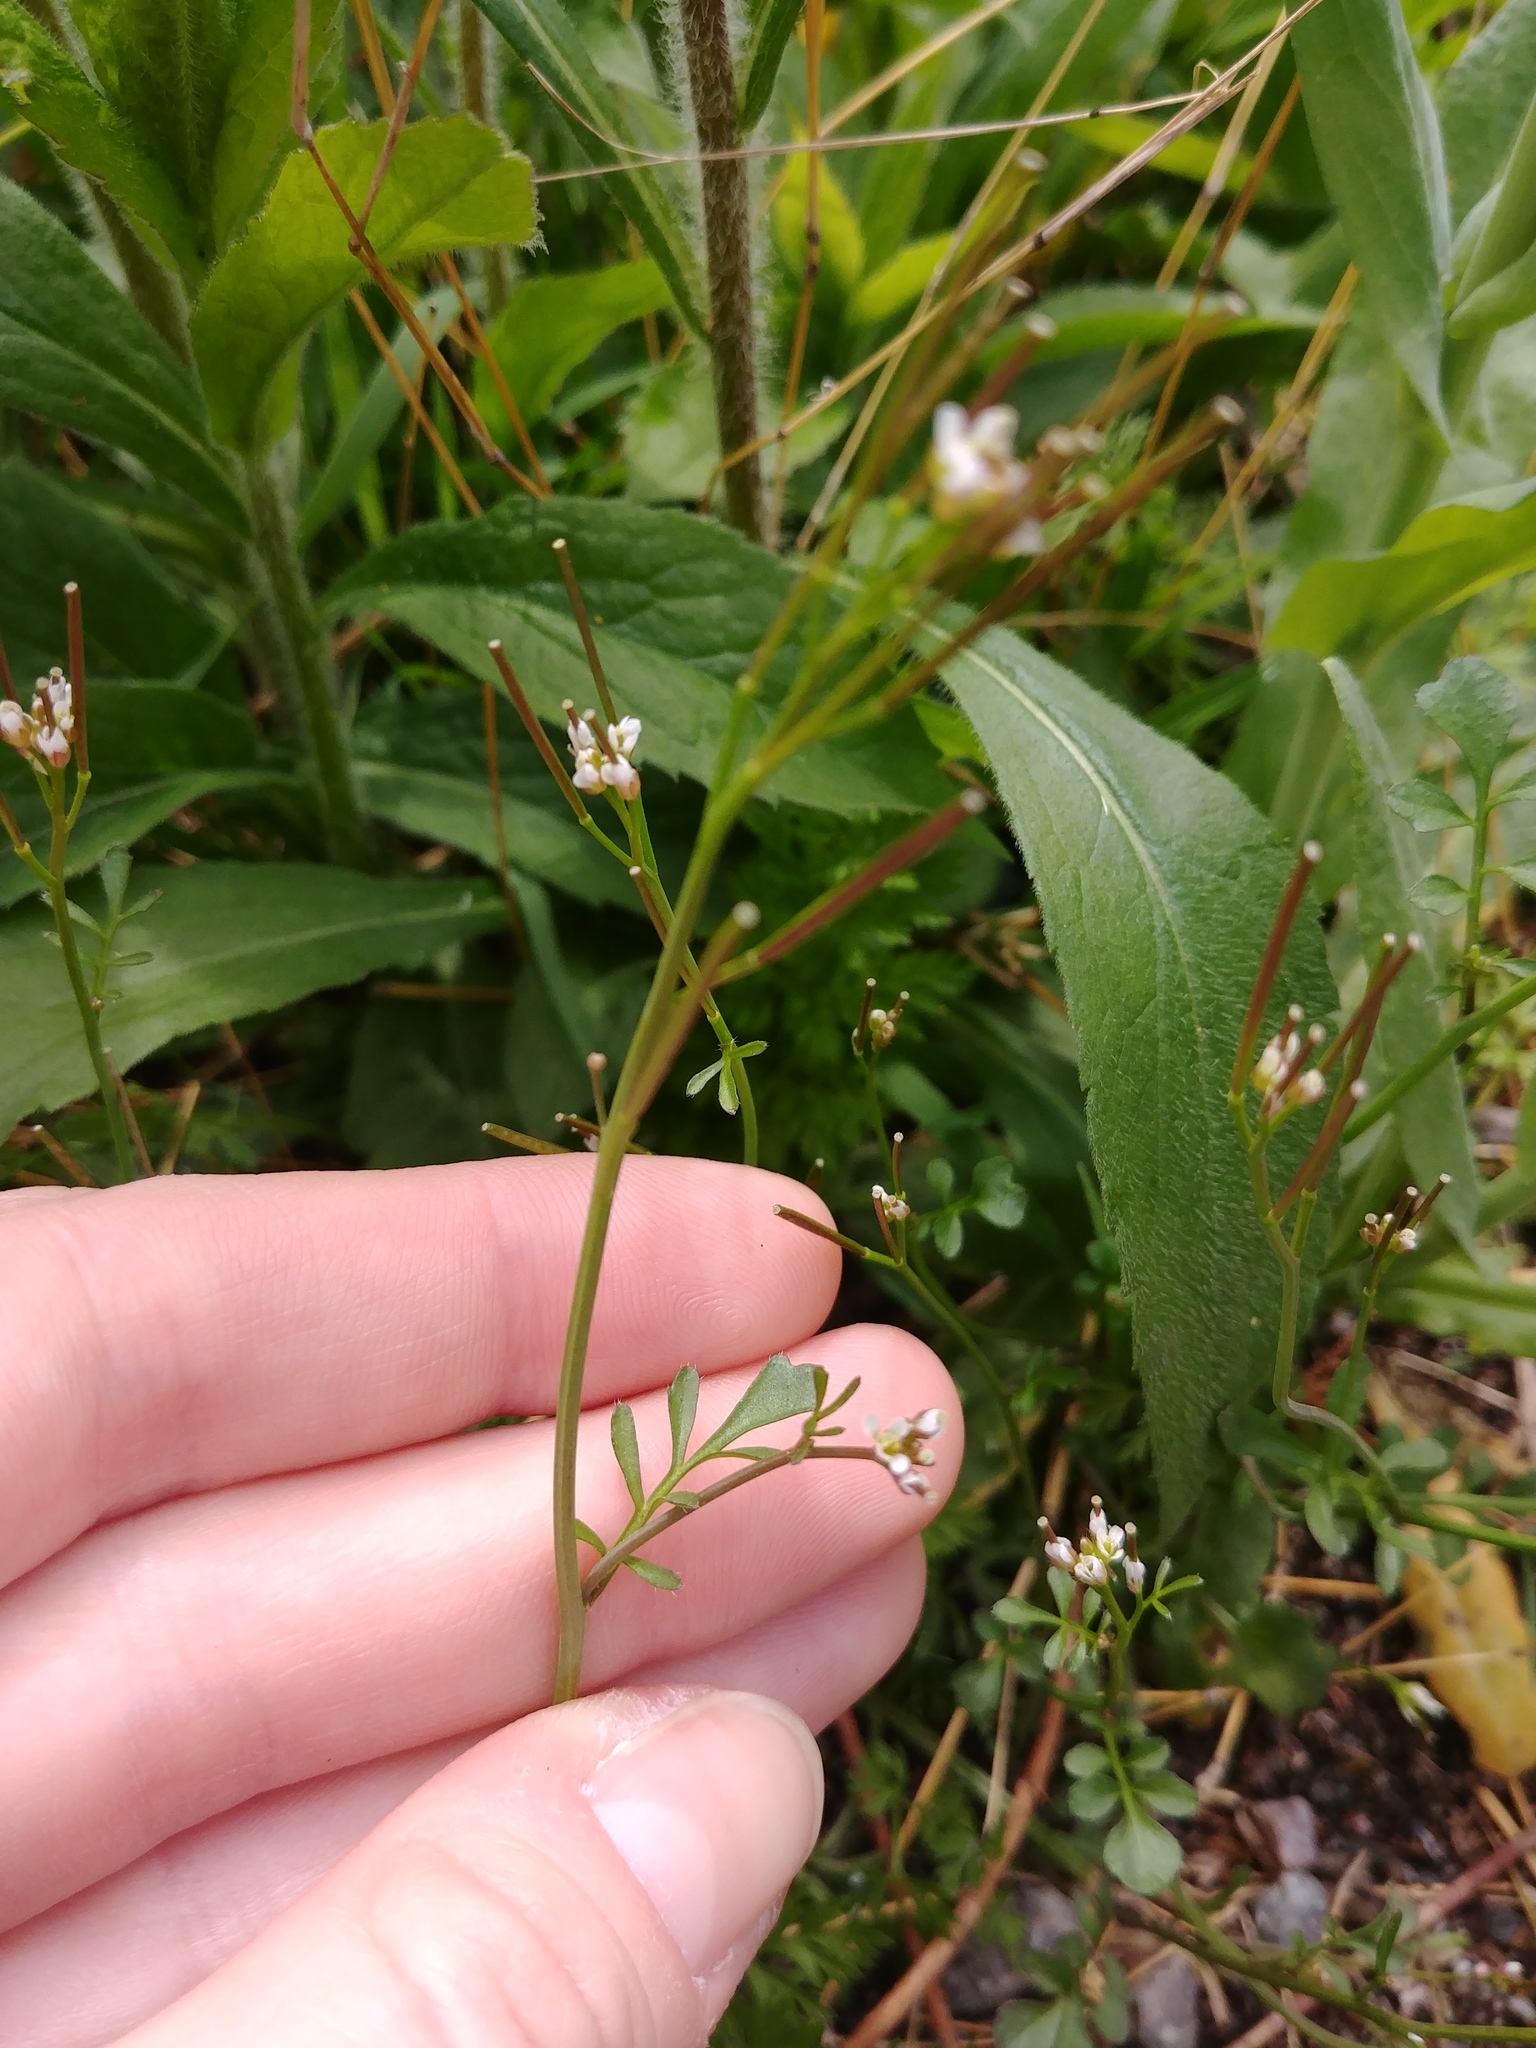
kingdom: Plantae
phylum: Tracheophyta
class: Magnoliopsida
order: Brassicales
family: Brassicaceae
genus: Cardamine
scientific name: Cardamine hirsuta
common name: Hairy bittercress
